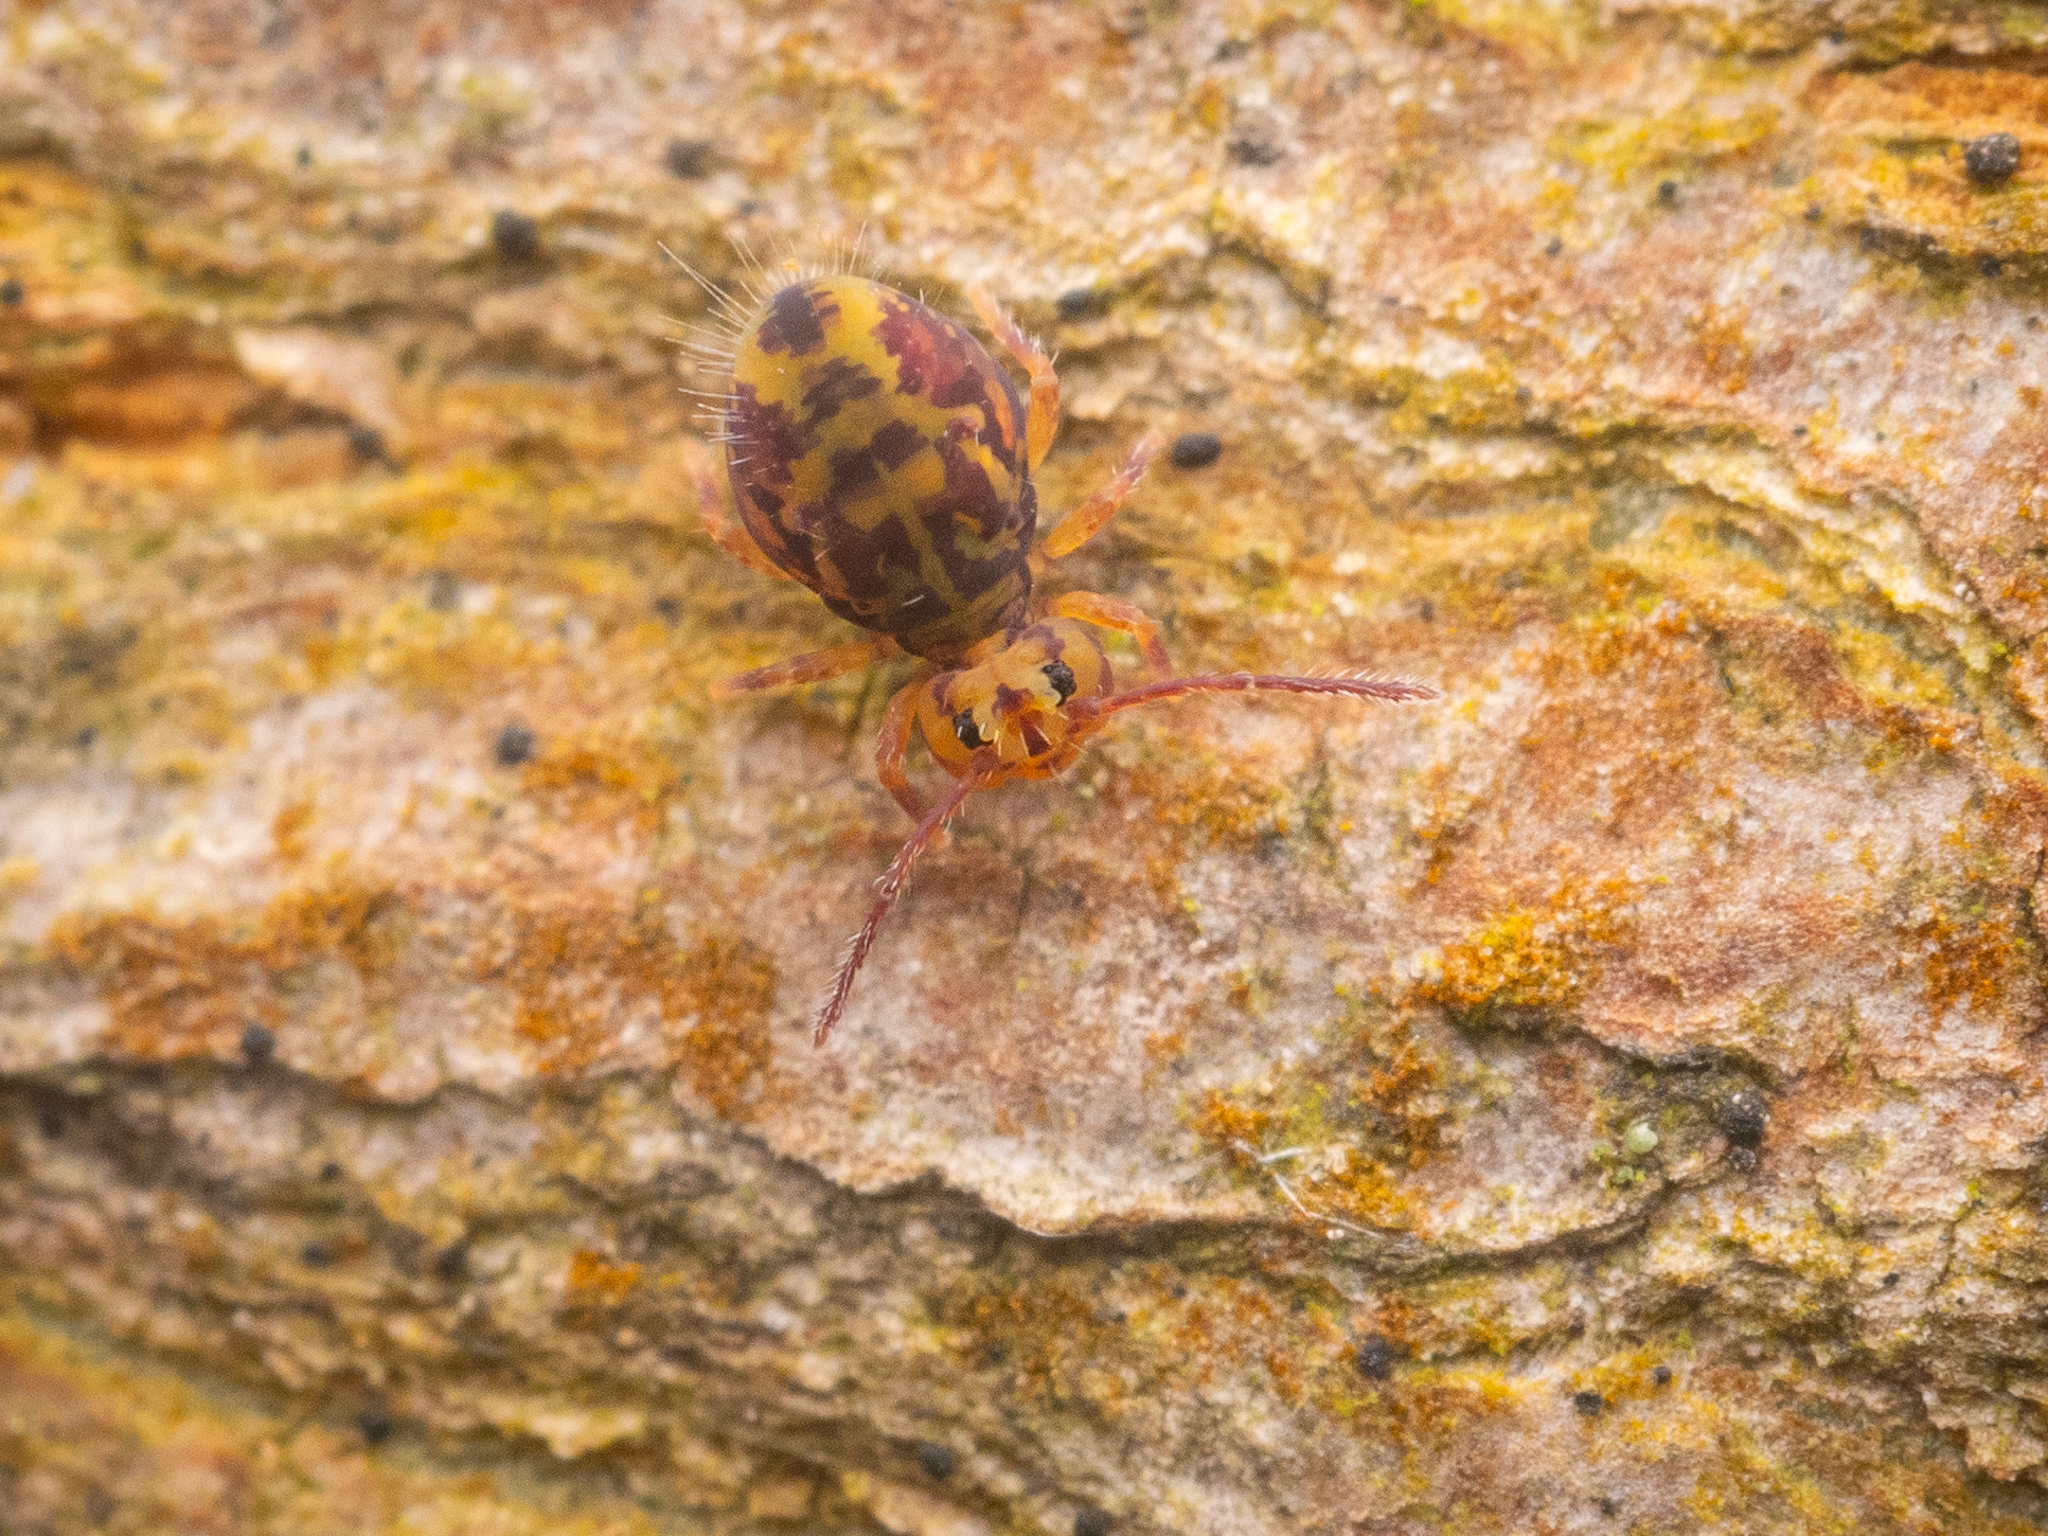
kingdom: Animalia
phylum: Arthropoda
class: Collembola
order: Symphypleona
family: Dicyrtomidae
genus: Dicyrtomina
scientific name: Dicyrtomina ornata
